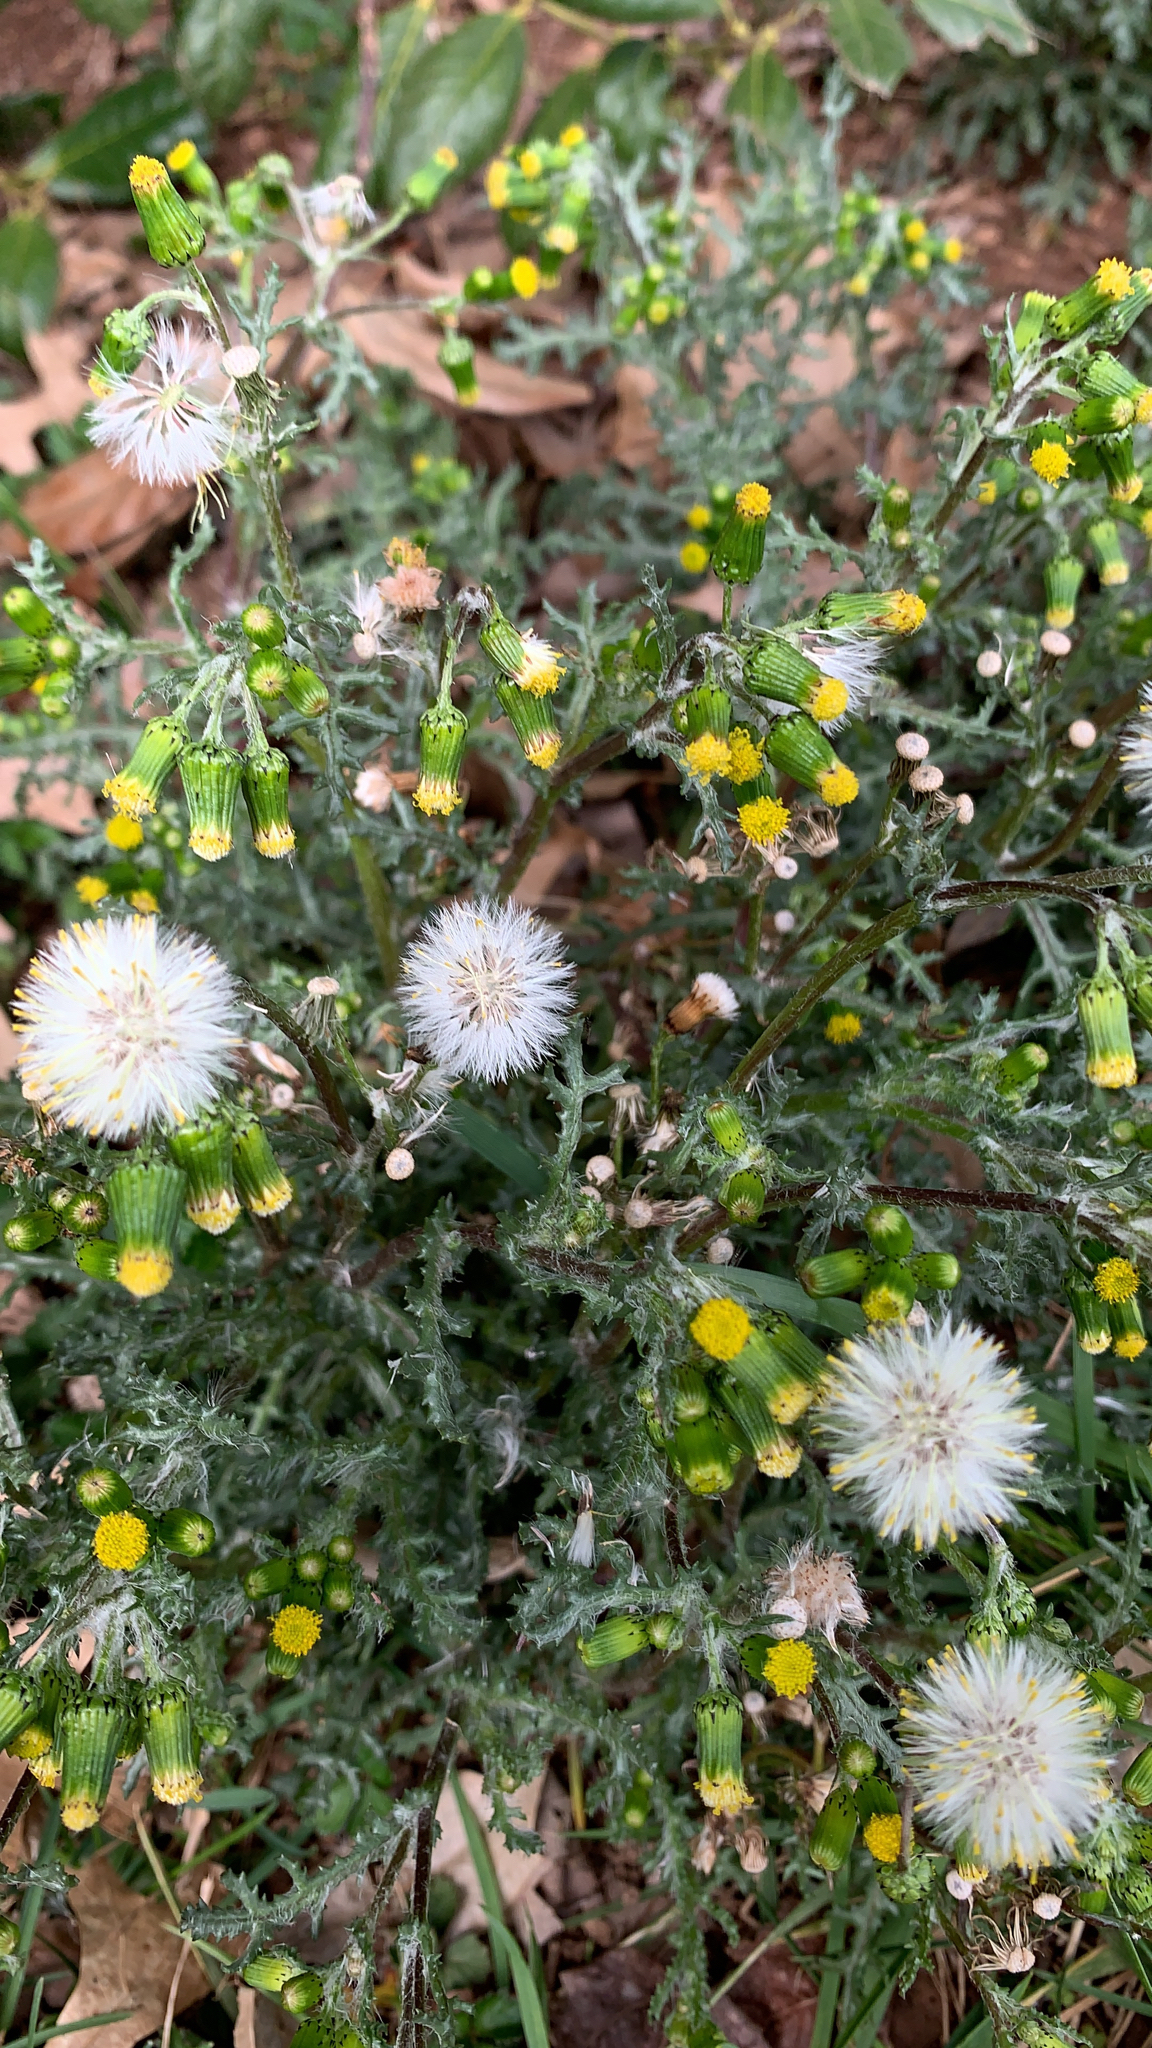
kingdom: Plantae
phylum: Tracheophyta
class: Magnoliopsida
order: Asterales
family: Asteraceae
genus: Senecio
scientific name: Senecio vulgaris
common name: Old-man-in-the-spring
